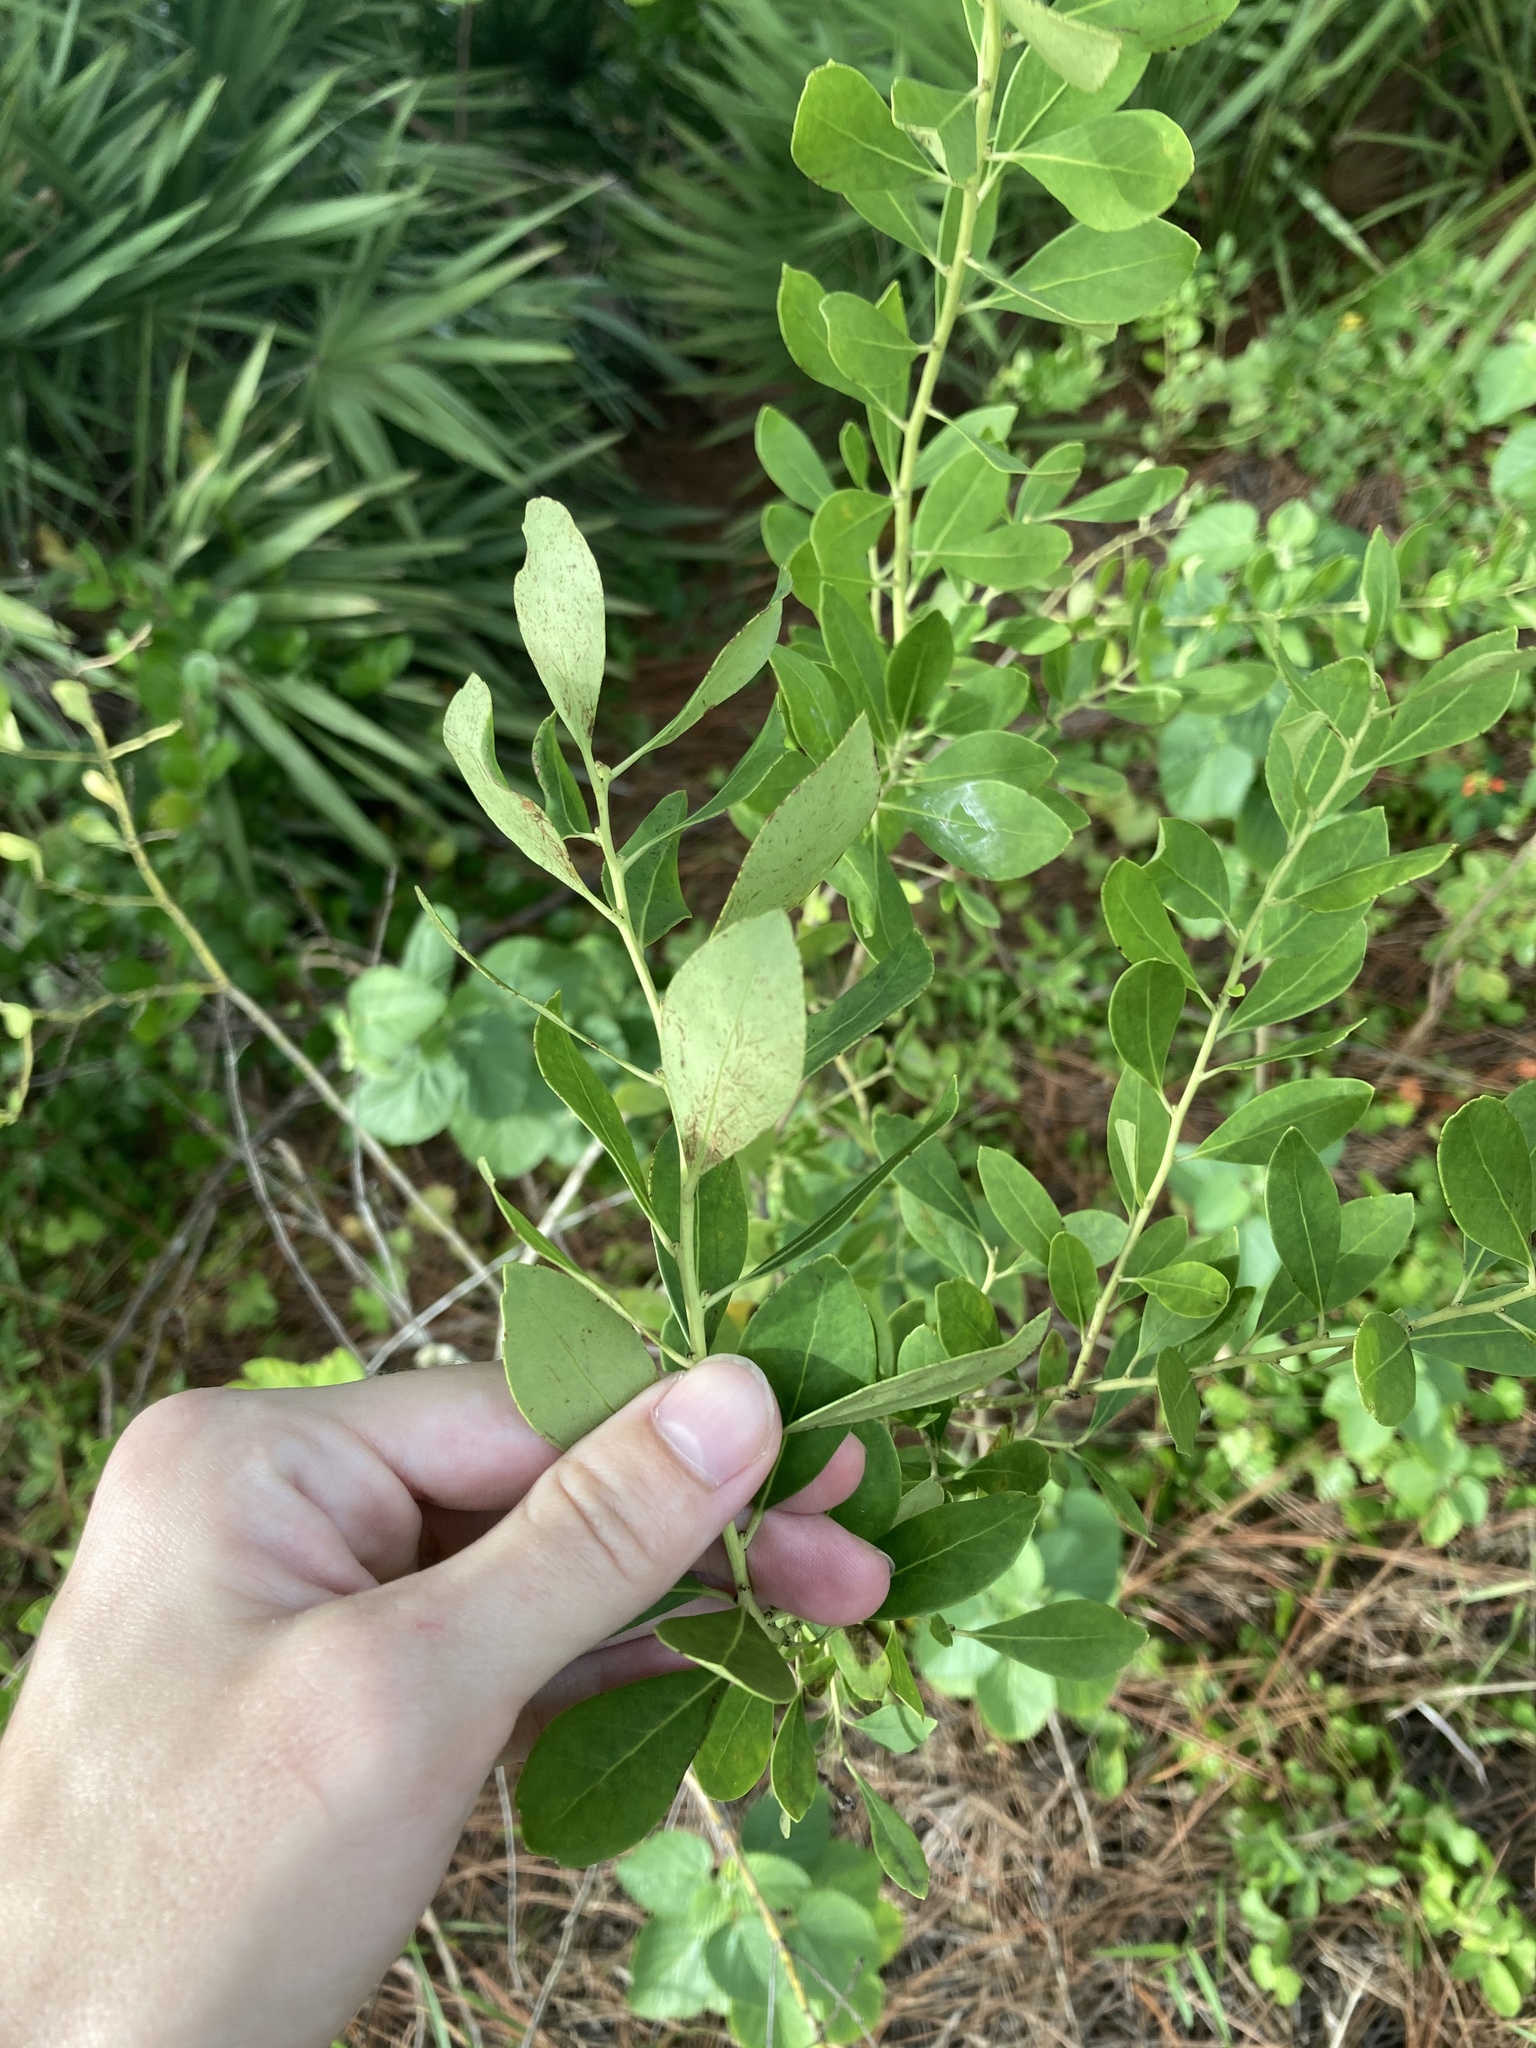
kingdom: Plantae
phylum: Tracheophyta
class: Magnoliopsida
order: Aquifoliales
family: Aquifoliaceae
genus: Ilex
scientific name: Ilex glabra
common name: Bitter gallberry
